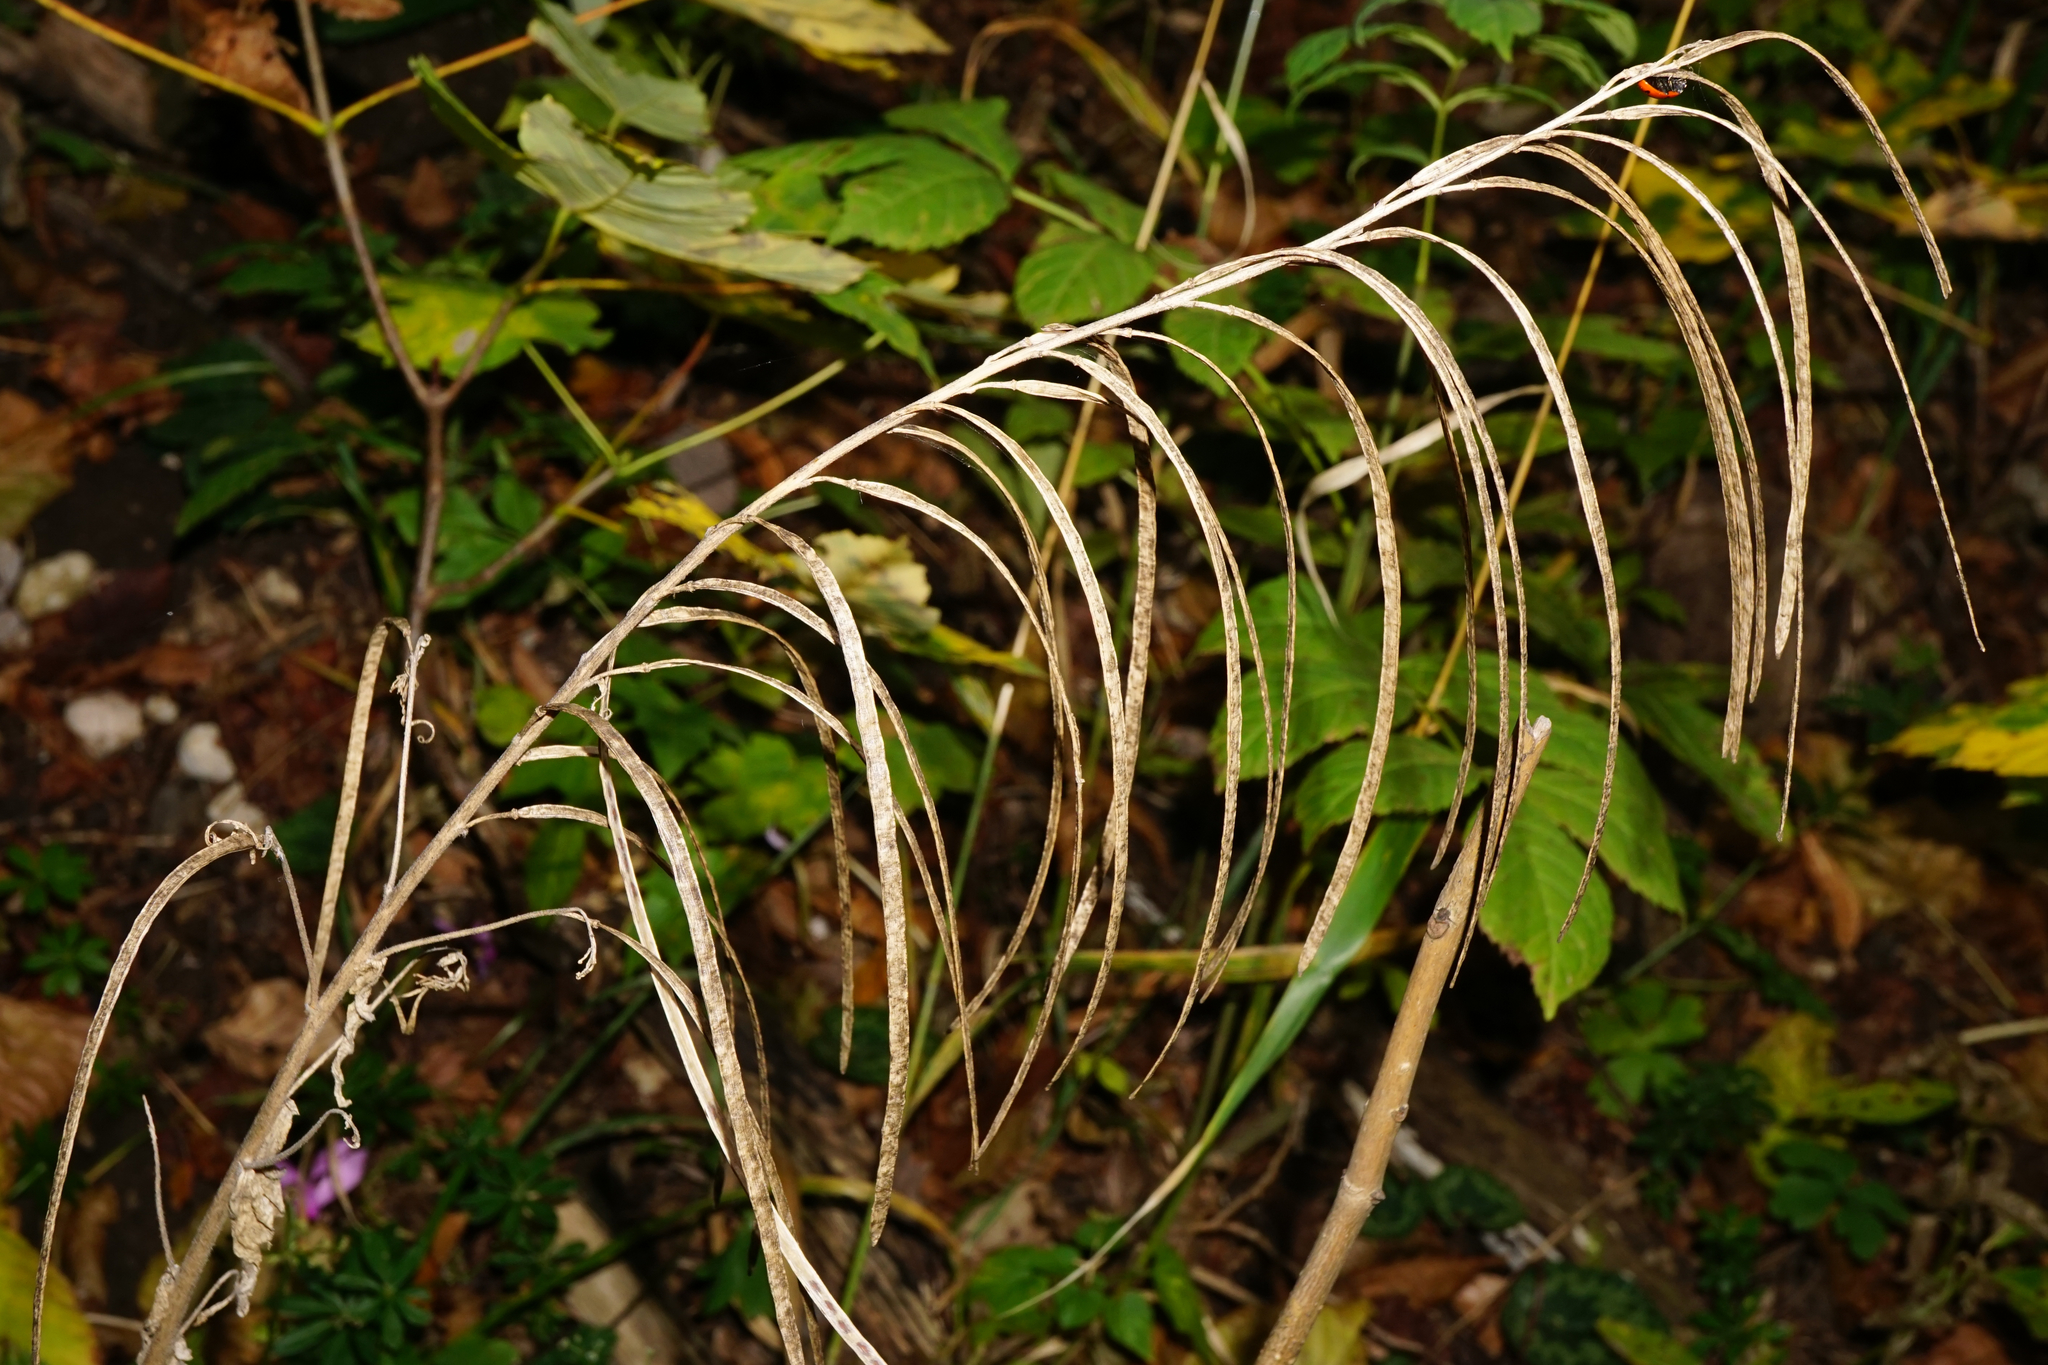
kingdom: Plantae
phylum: Tracheophyta
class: Magnoliopsida
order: Brassicales
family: Brassicaceae
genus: Pseudoturritis
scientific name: Pseudoturritis turrita
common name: Tower cress
